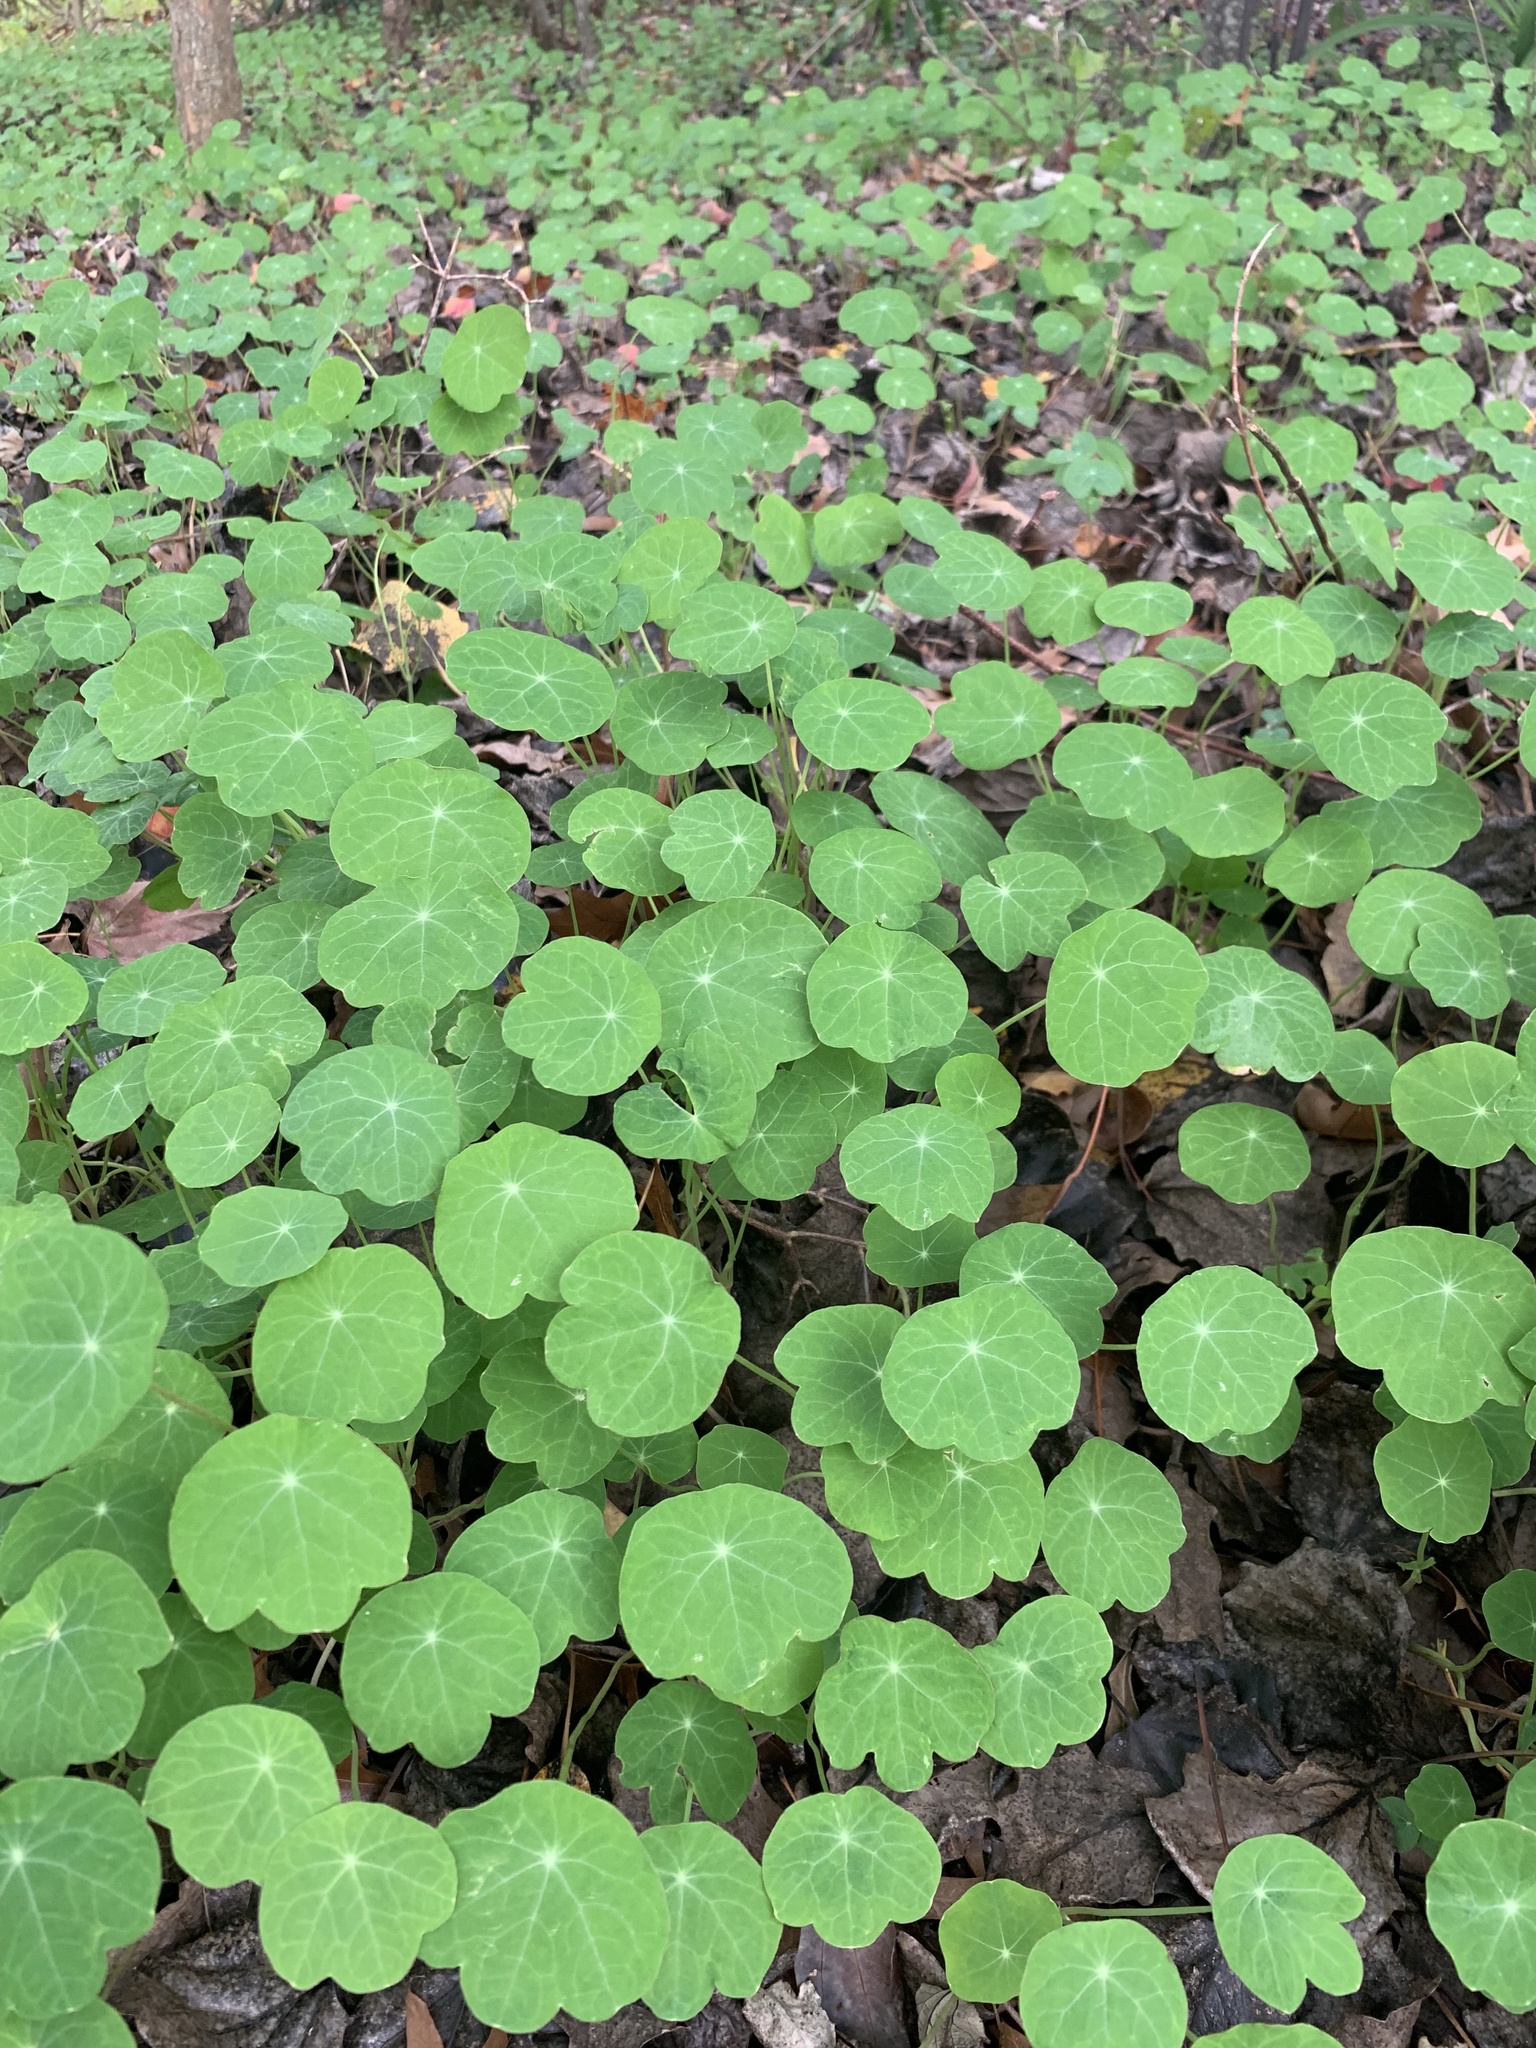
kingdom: Plantae
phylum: Tracheophyta
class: Magnoliopsida
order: Brassicales
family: Tropaeolaceae
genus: Tropaeolum
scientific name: Tropaeolum majus
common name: Nasturtium
